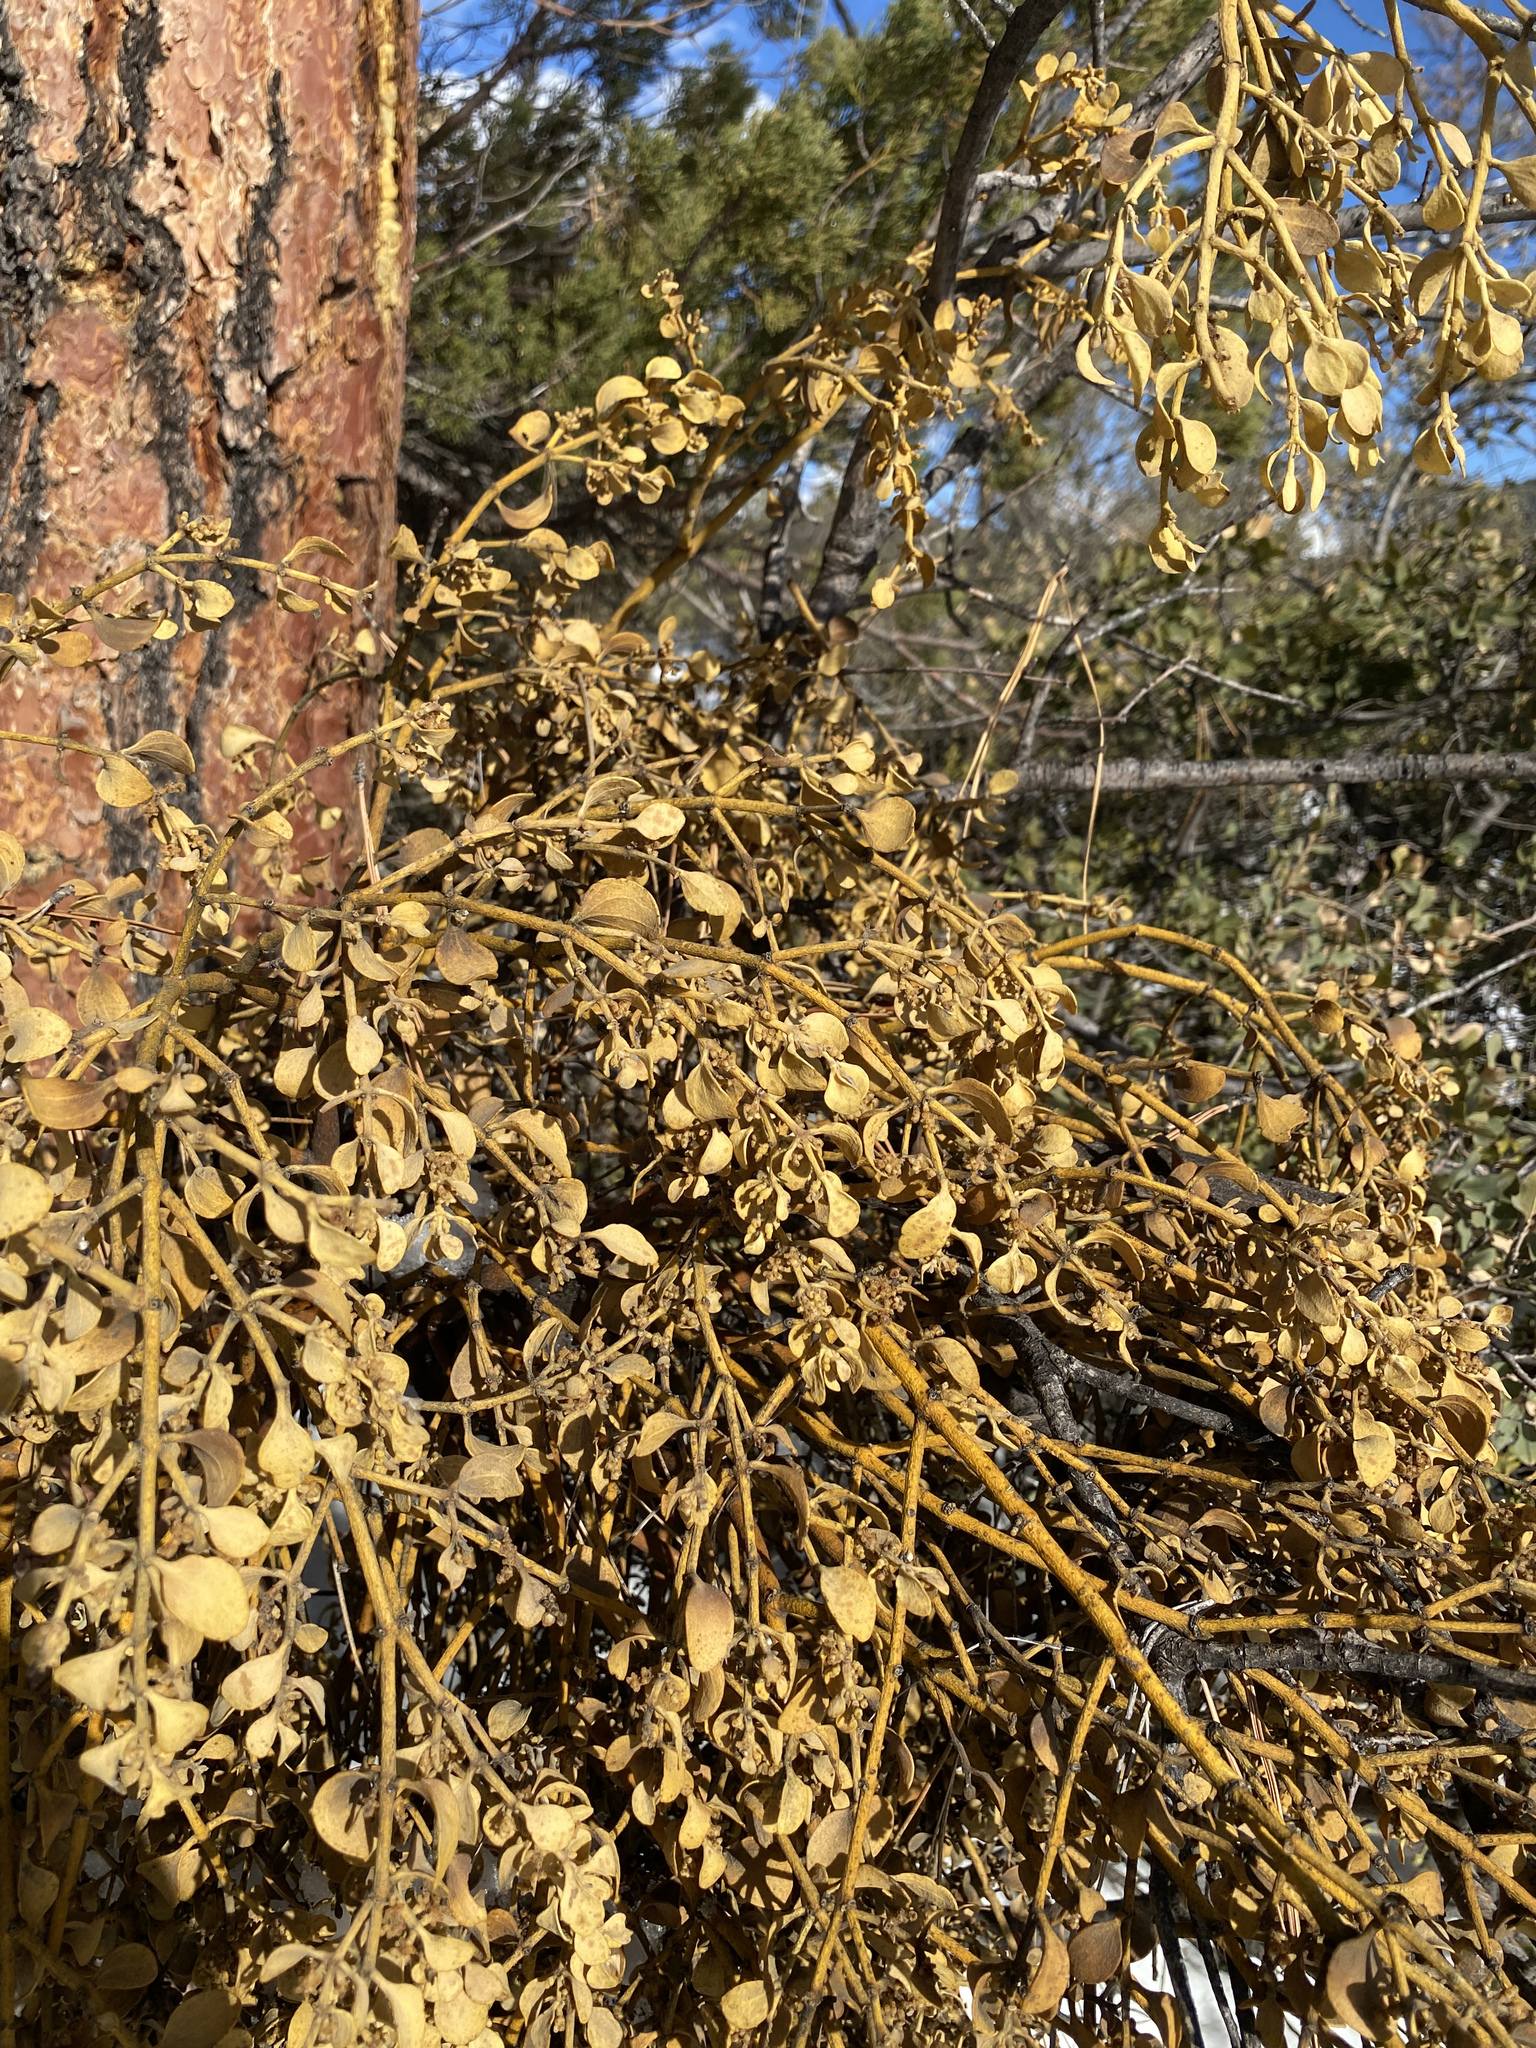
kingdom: Plantae
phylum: Tracheophyta
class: Magnoliopsida
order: Santalales
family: Viscaceae
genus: Phoradendron
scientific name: Phoradendron coryae
